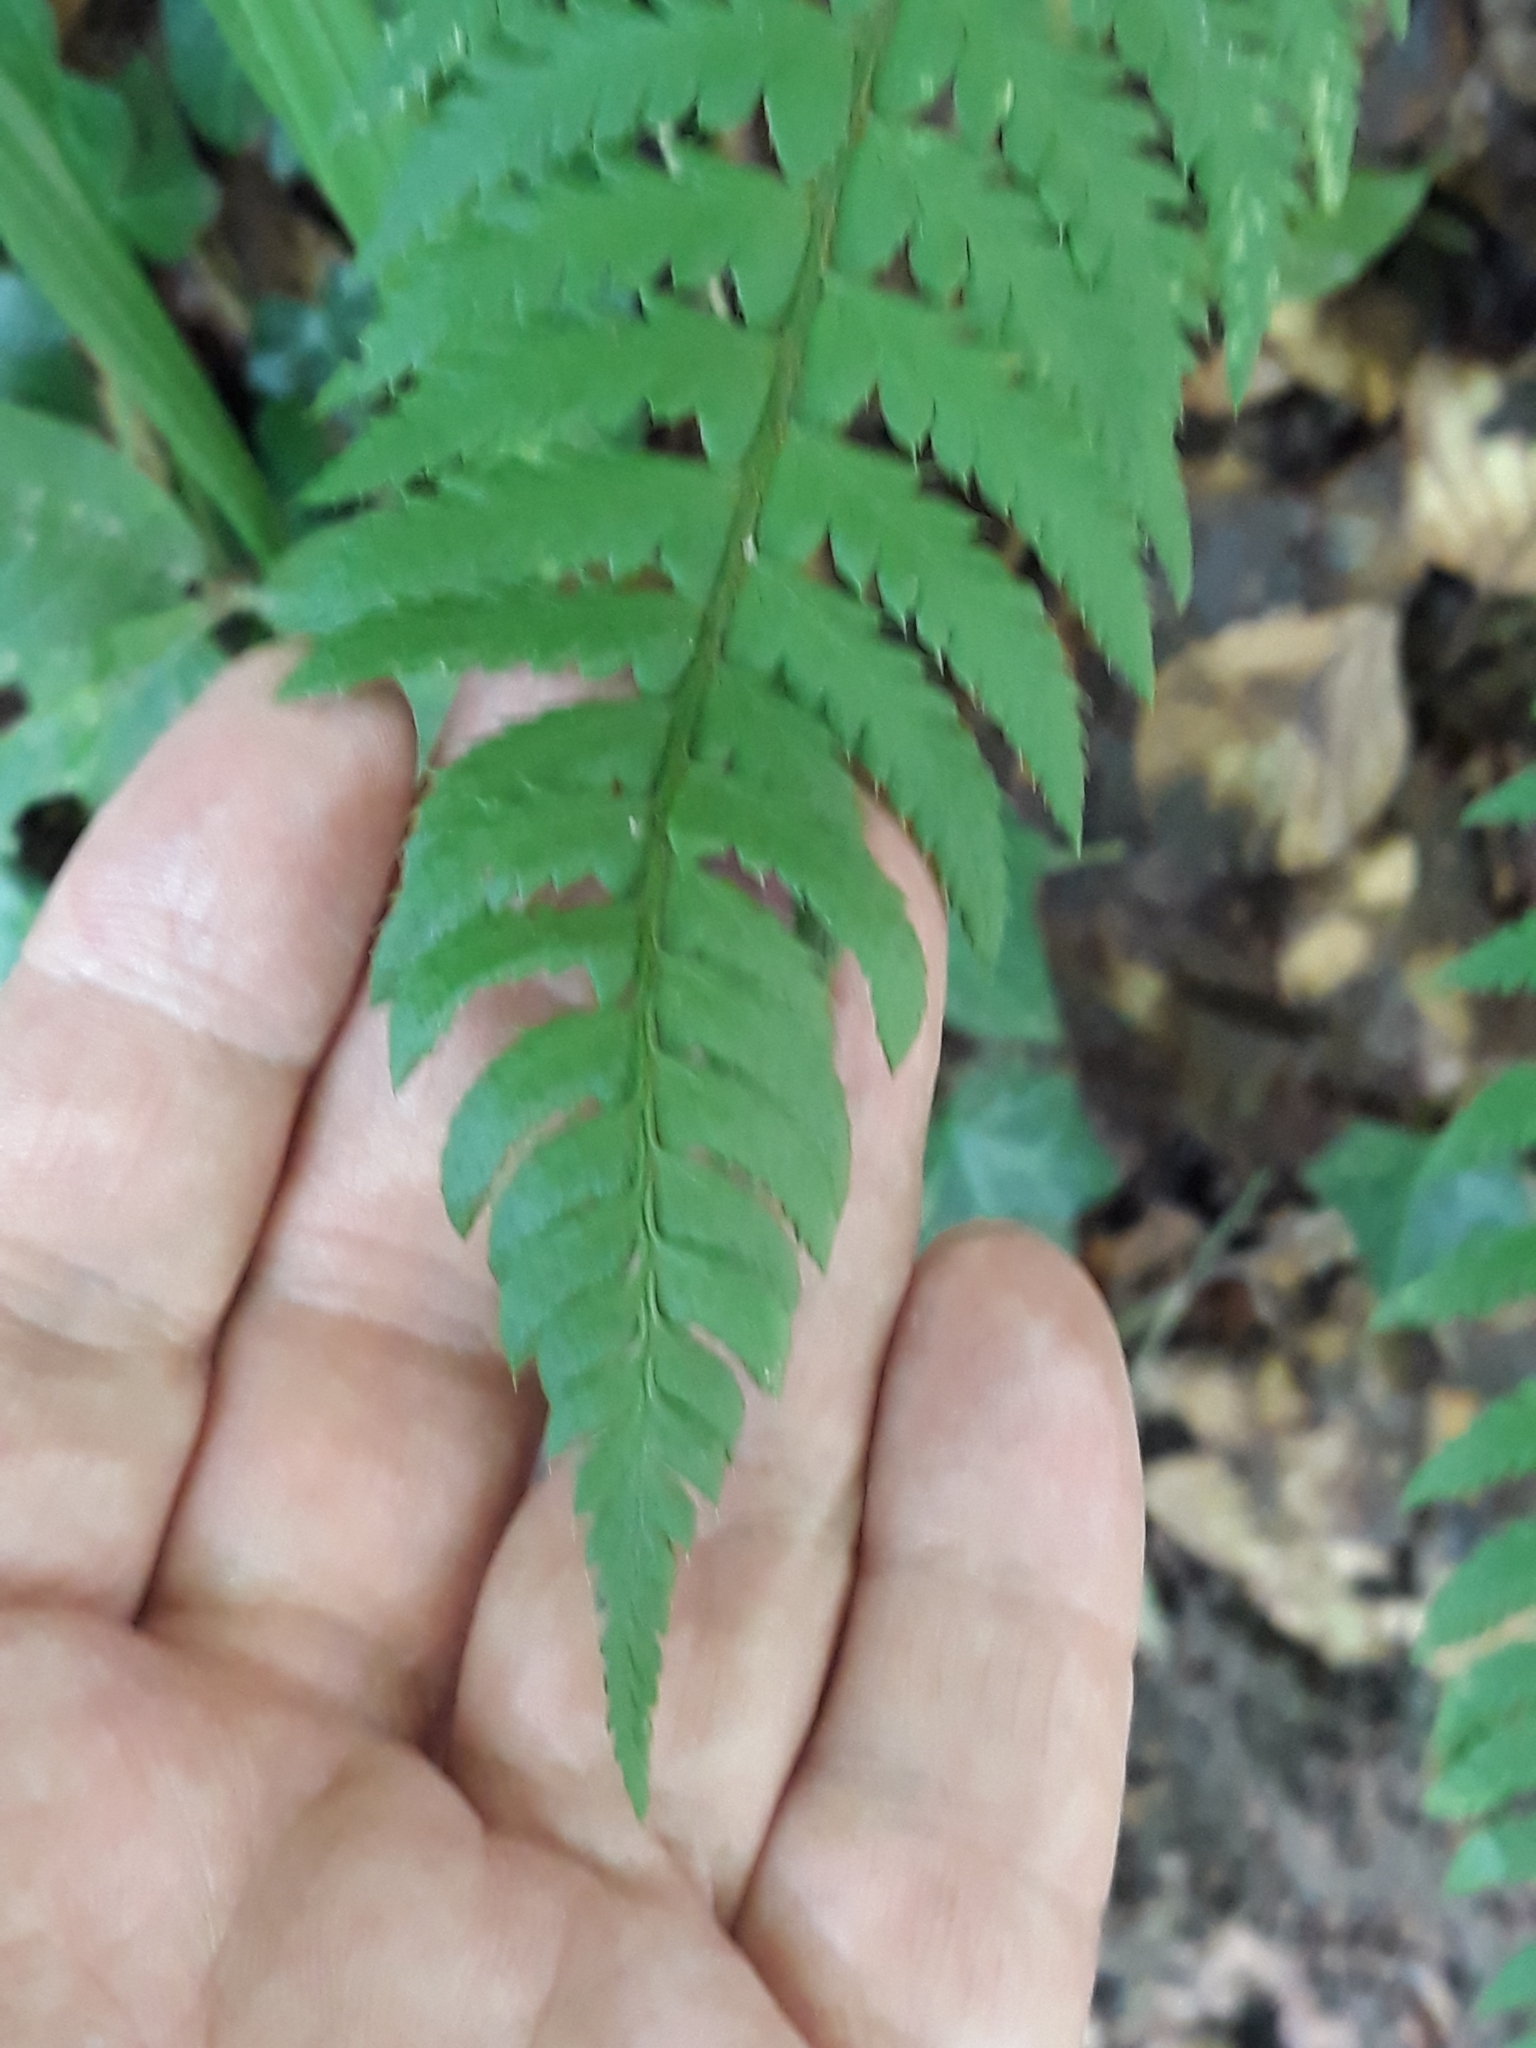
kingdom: Plantae
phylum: Tracheophyta
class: Polypodiopsida
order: Polypodiales
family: Dryopteridaceae
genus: Polystichum
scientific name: Polystichum aculeatum
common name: Hard shield-fern
